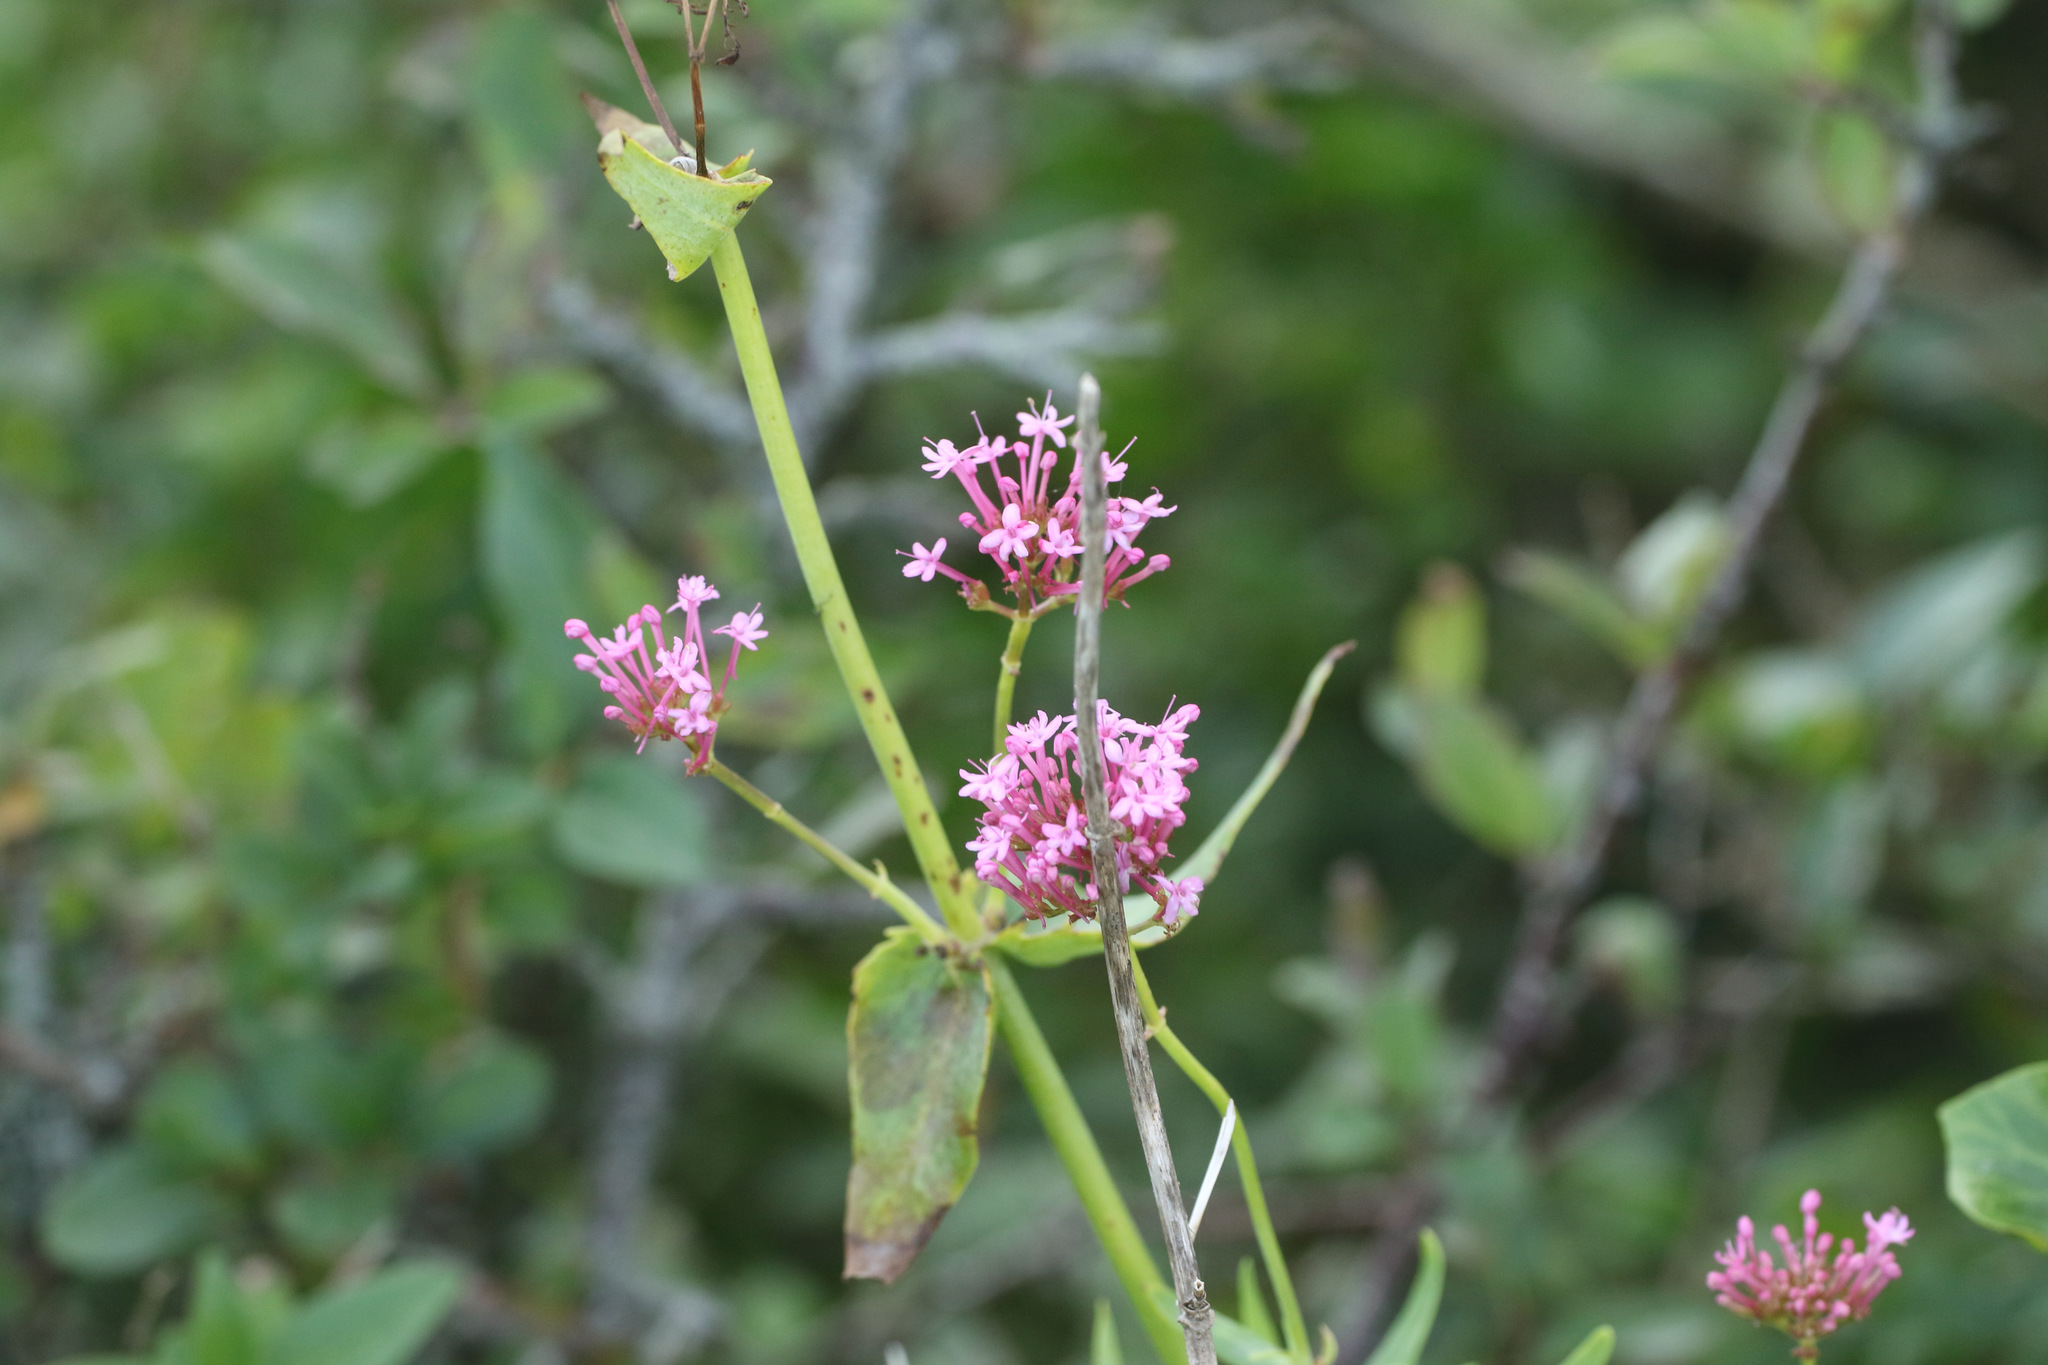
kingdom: Plantae
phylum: Tracheophyta
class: Magnoliopsida
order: Dipsacales
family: Caprifoliaceae
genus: Centranthus
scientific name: Centranthus ruber
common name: Red valerian
